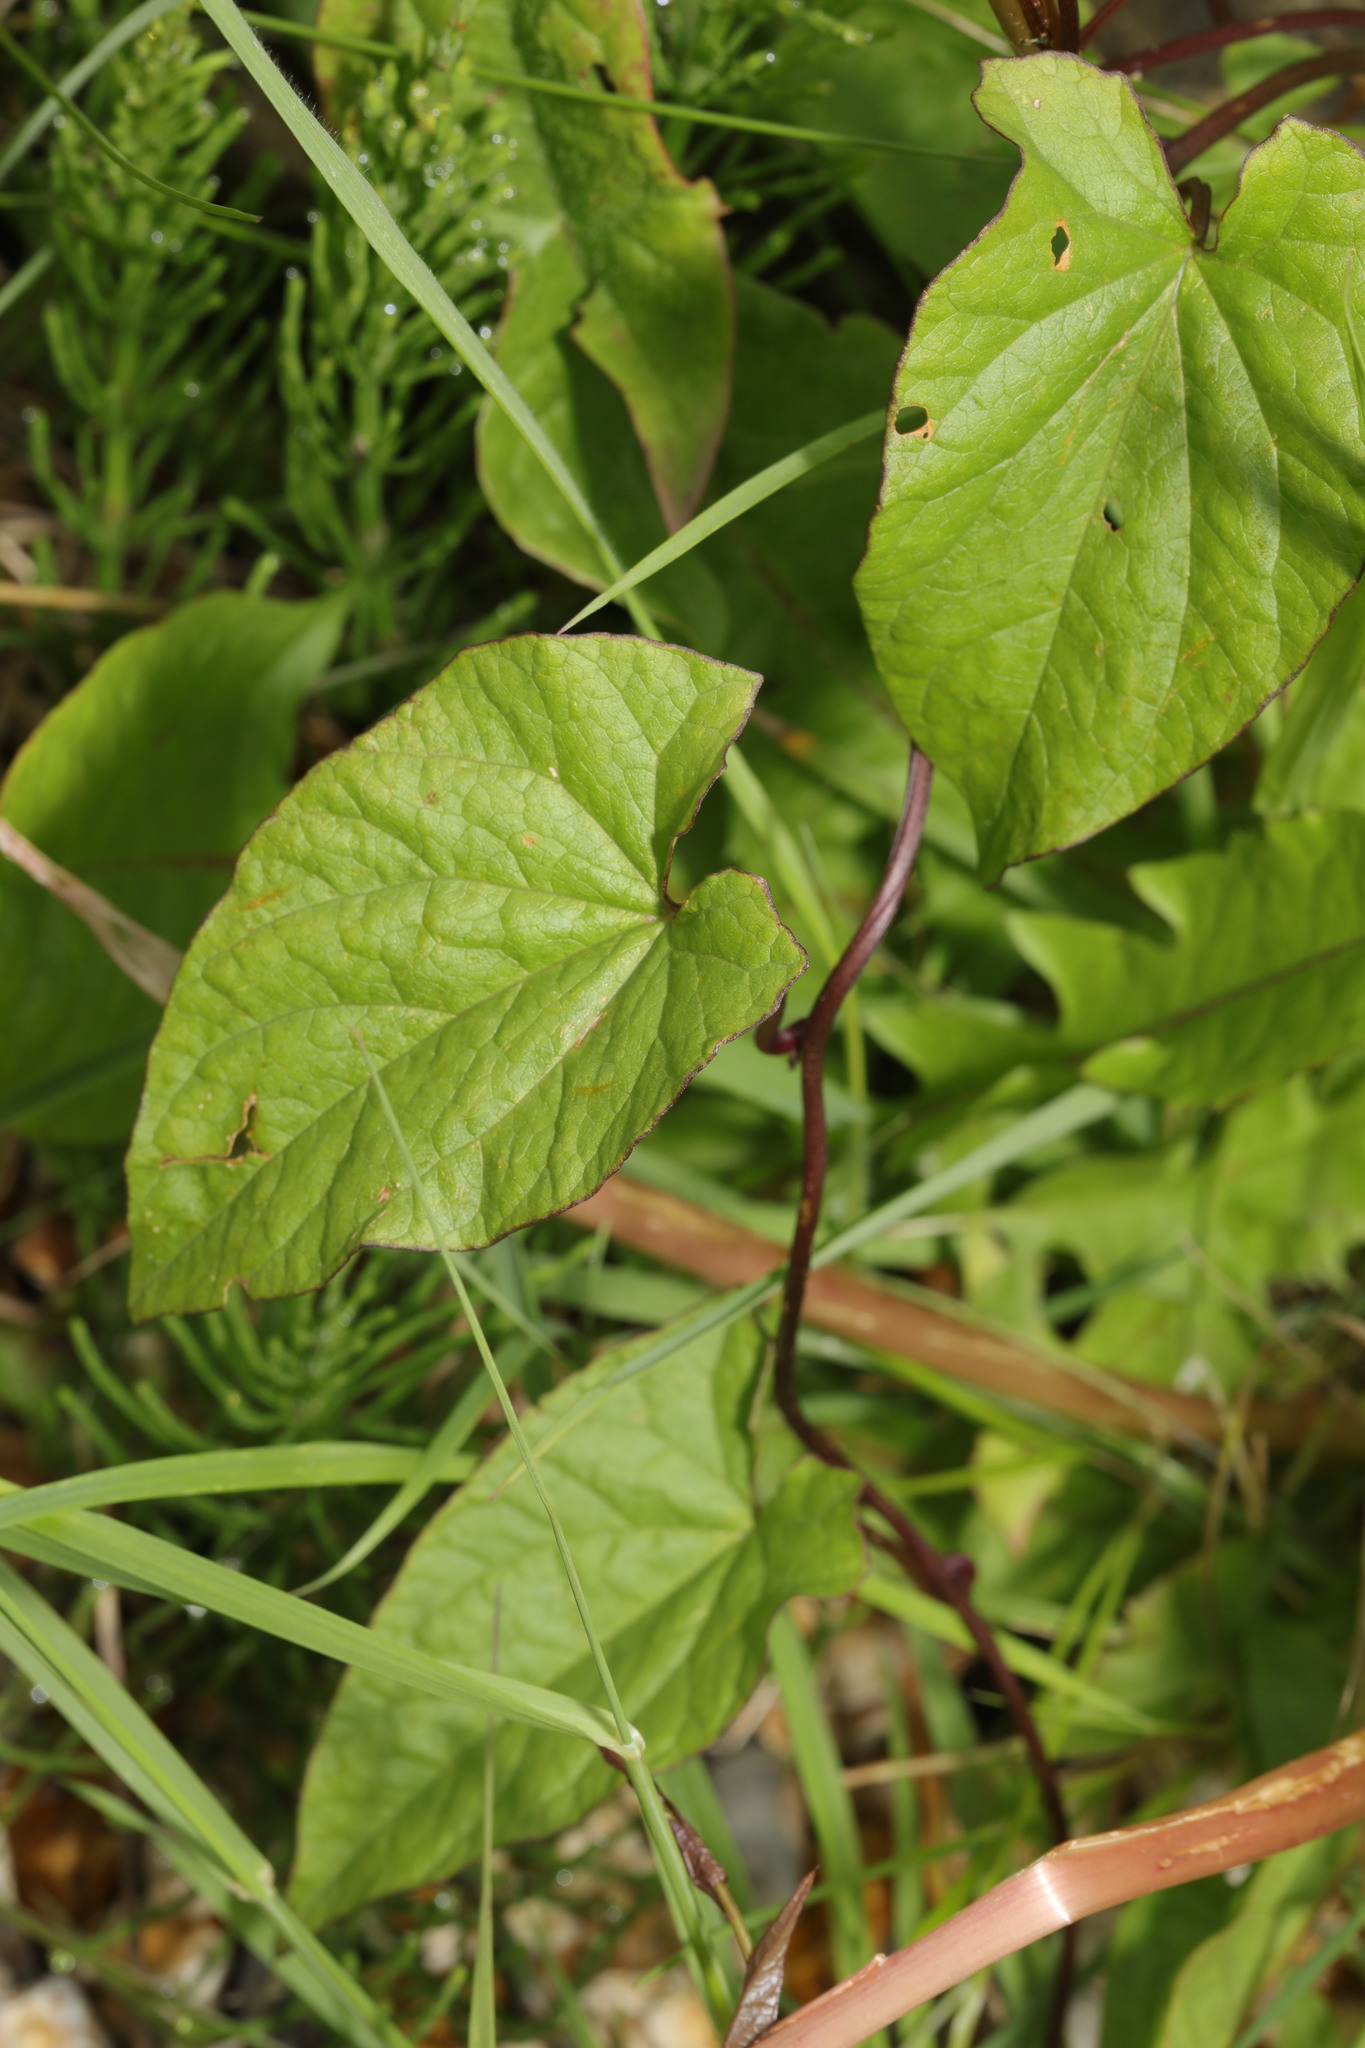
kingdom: Plantae
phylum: Tracheophyta
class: Magnoliopsida
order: Solanales
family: Convolvulaceae
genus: Calystegia
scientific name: Calystegia
